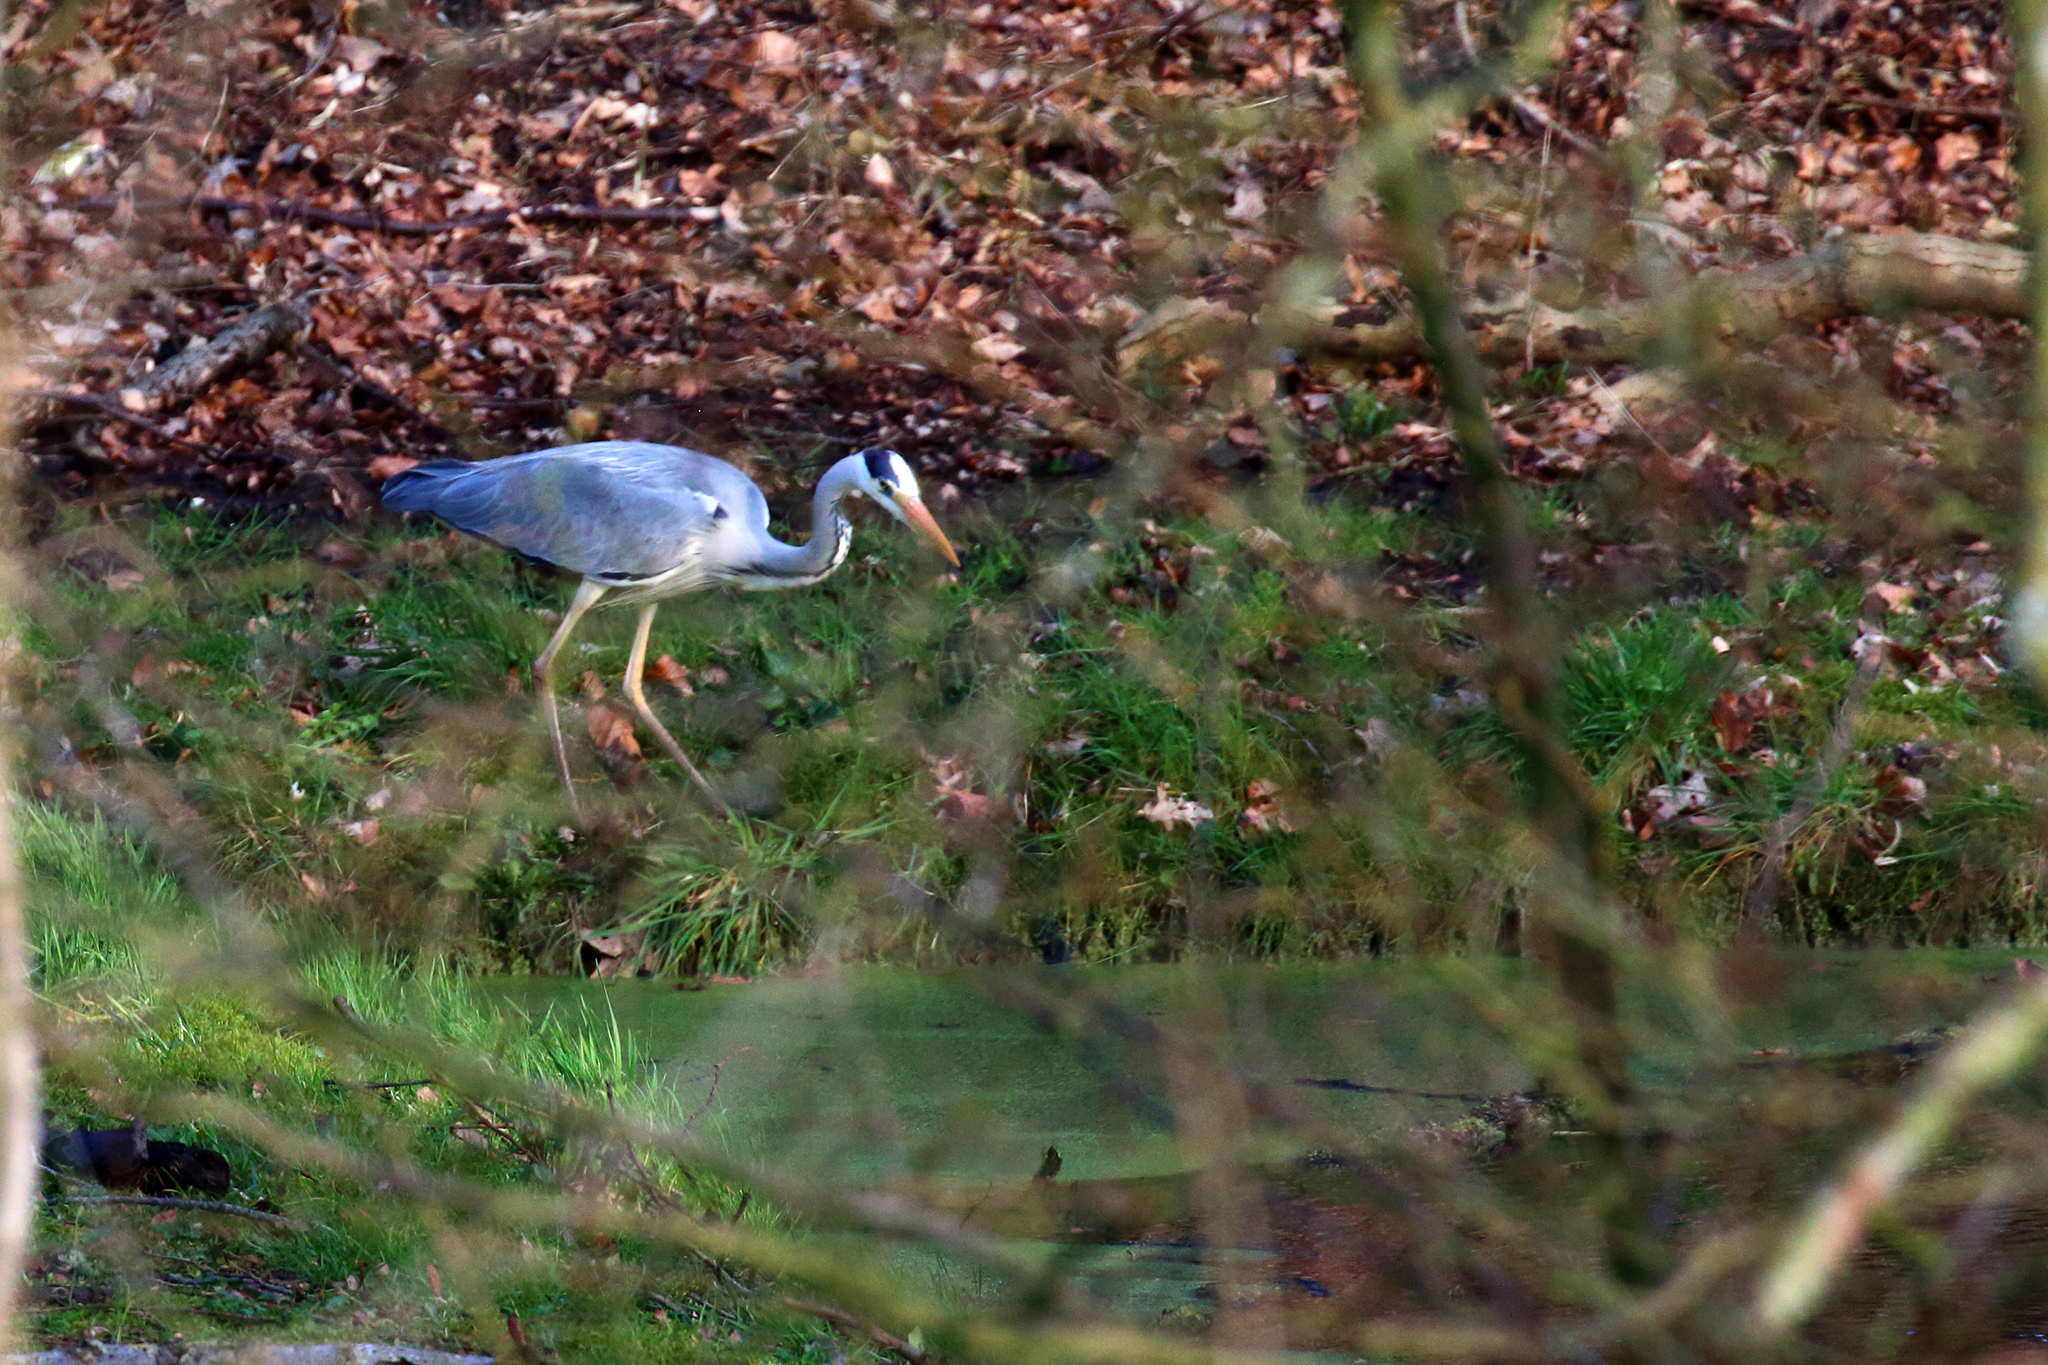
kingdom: Animalia
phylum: Chordata
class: Aves
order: Pelecaniformes
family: Ardeidae
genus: Ardea
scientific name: Ardea cinerea
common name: Grey heron
